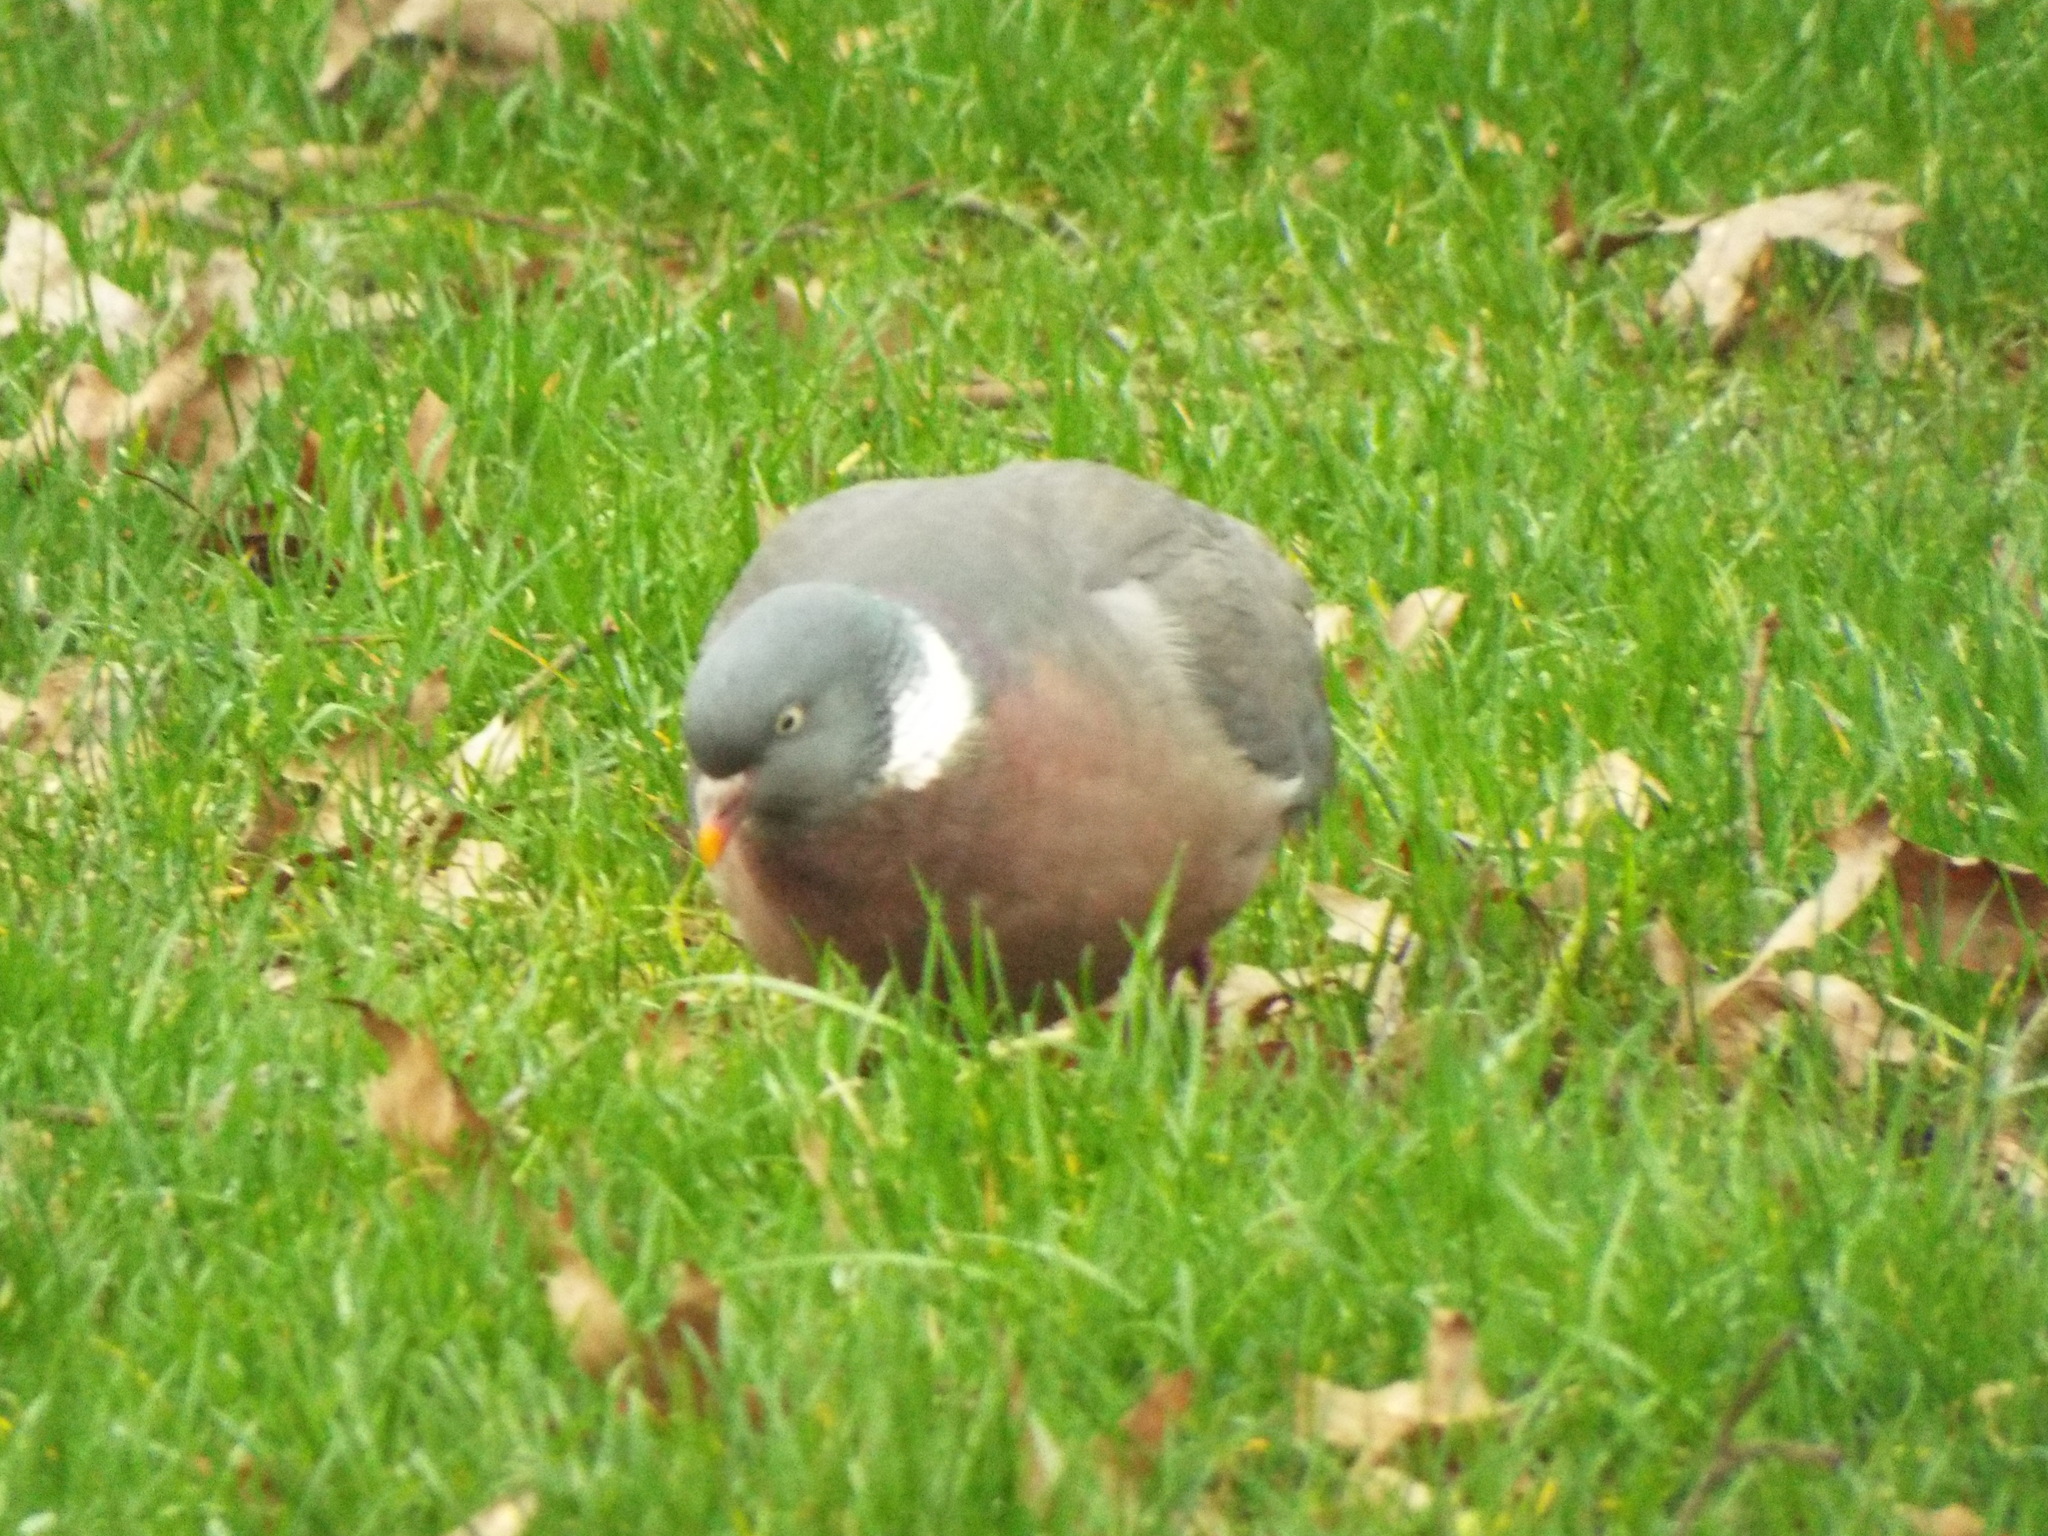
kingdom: Animalia
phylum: Chordata
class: Aves
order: Columbiformes
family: Columbidae
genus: Columba
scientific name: Columba palumbus
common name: Common wood pigeon
